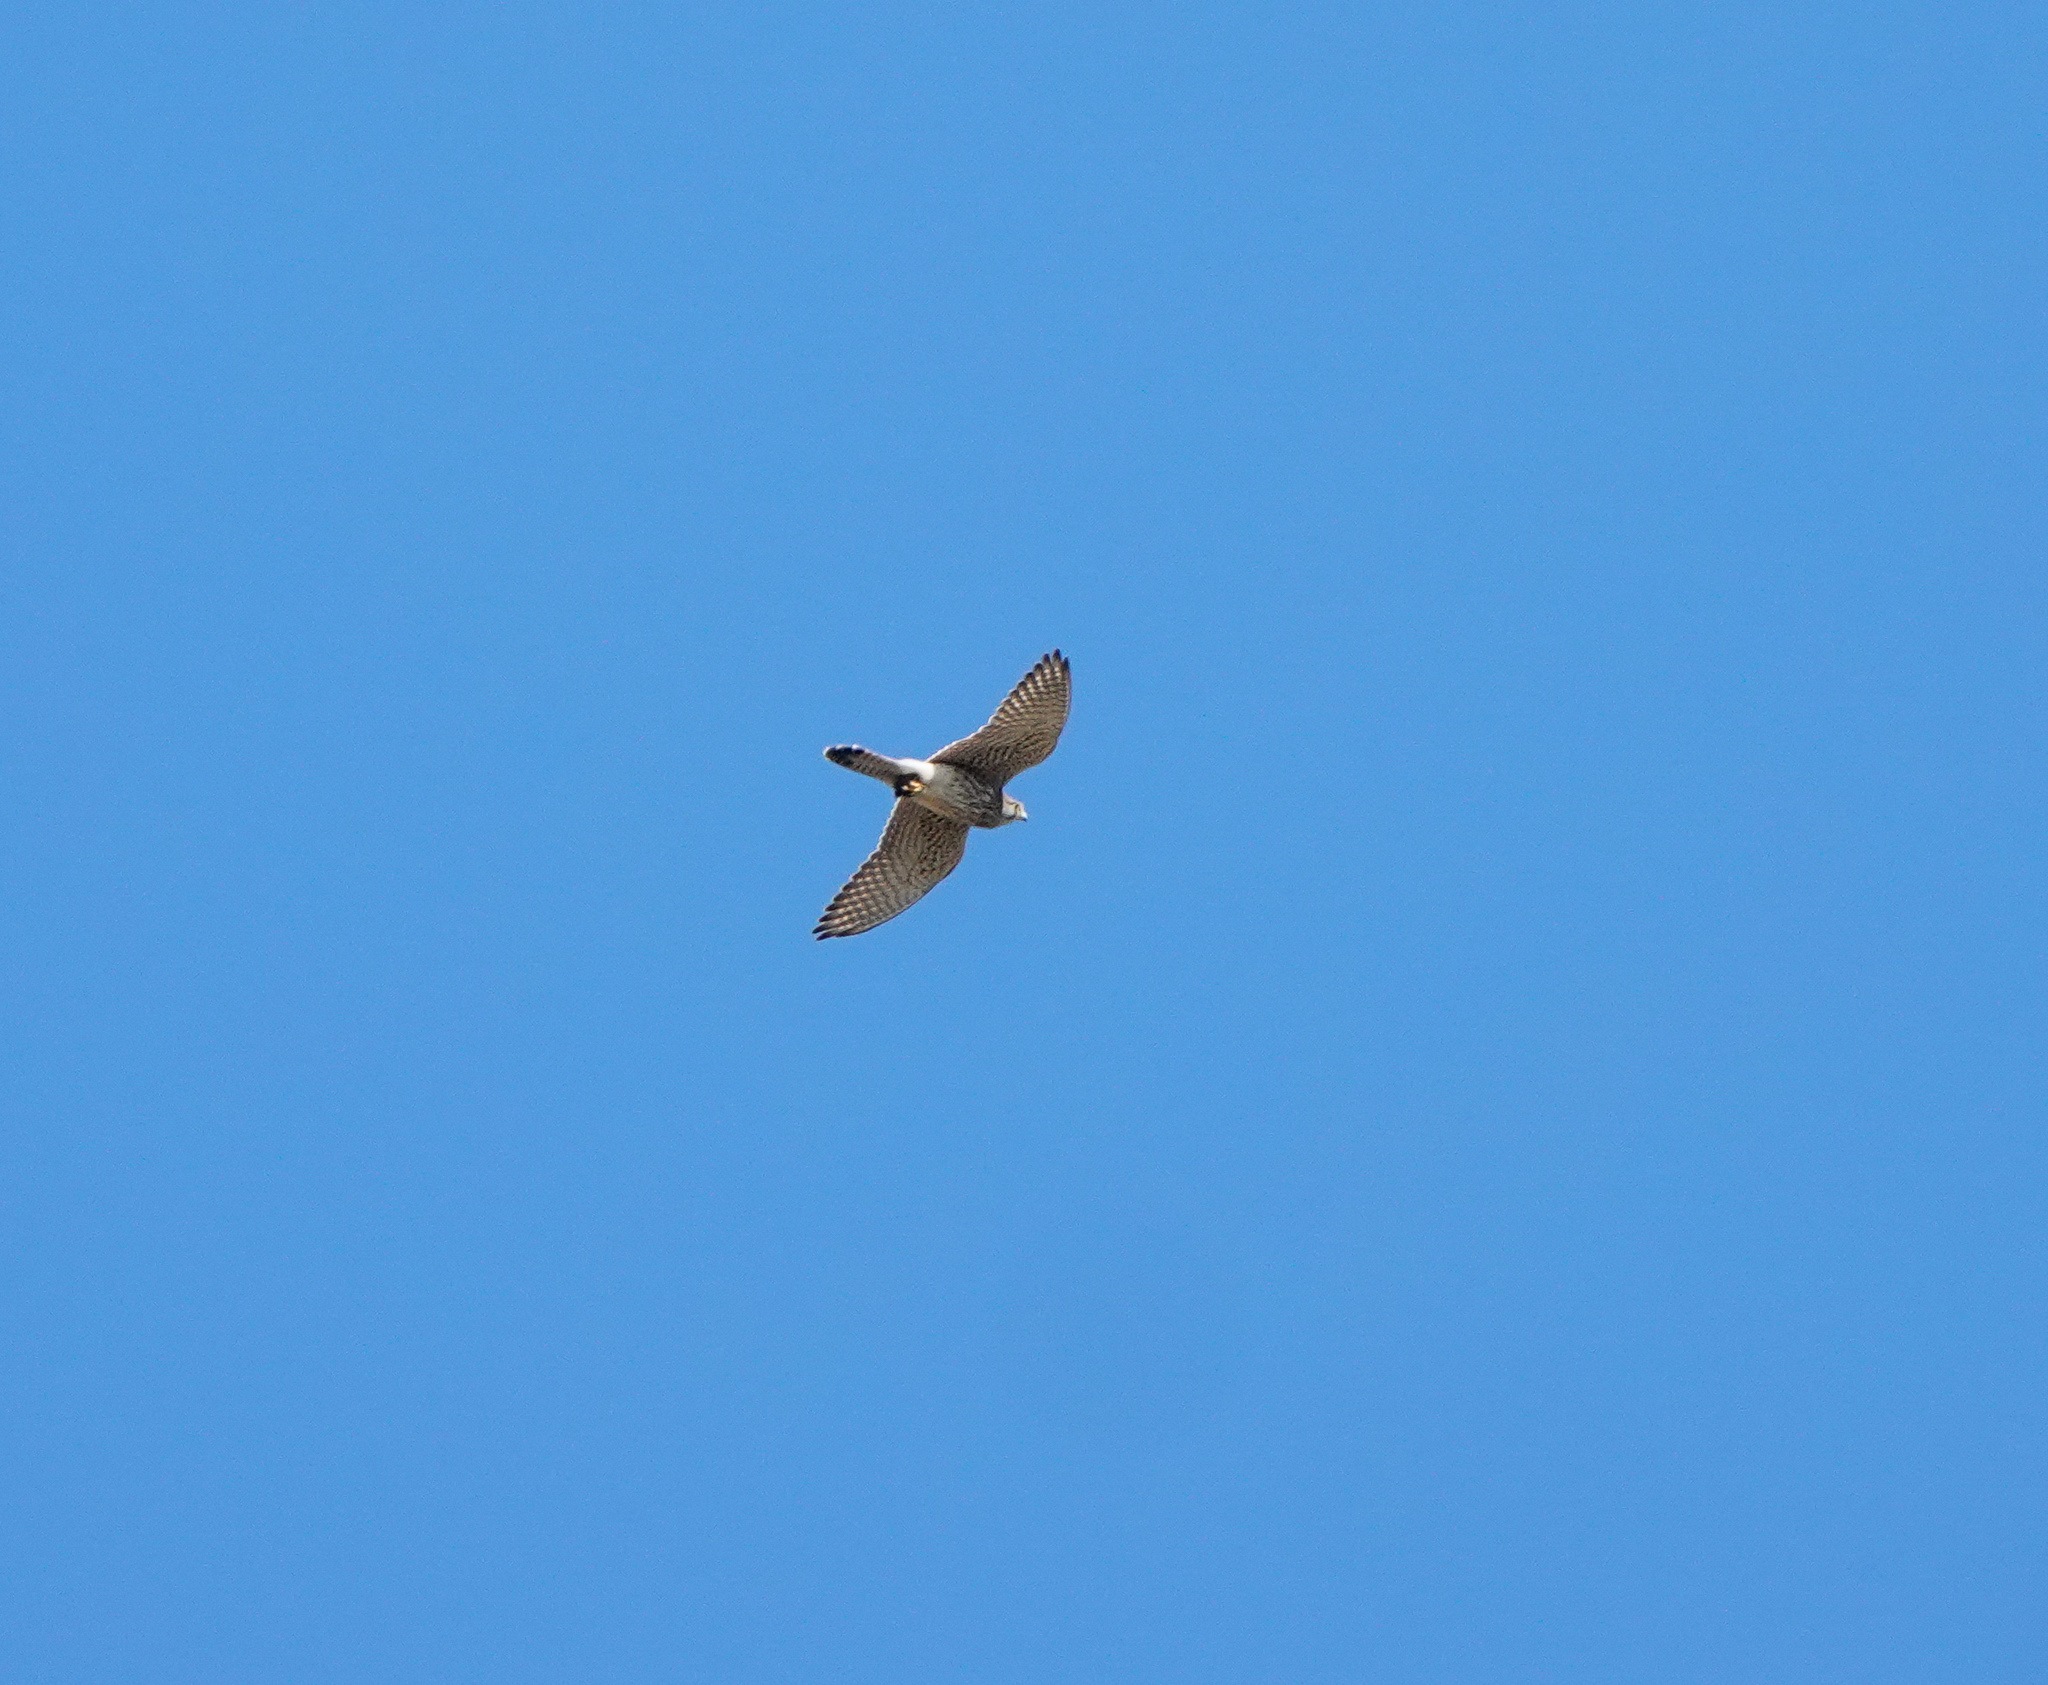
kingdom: Animalia
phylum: Chordata
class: Aves
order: Falconiformes
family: Falconidae
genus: Falco
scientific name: Falco tinnunculus
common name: Common kestrel
